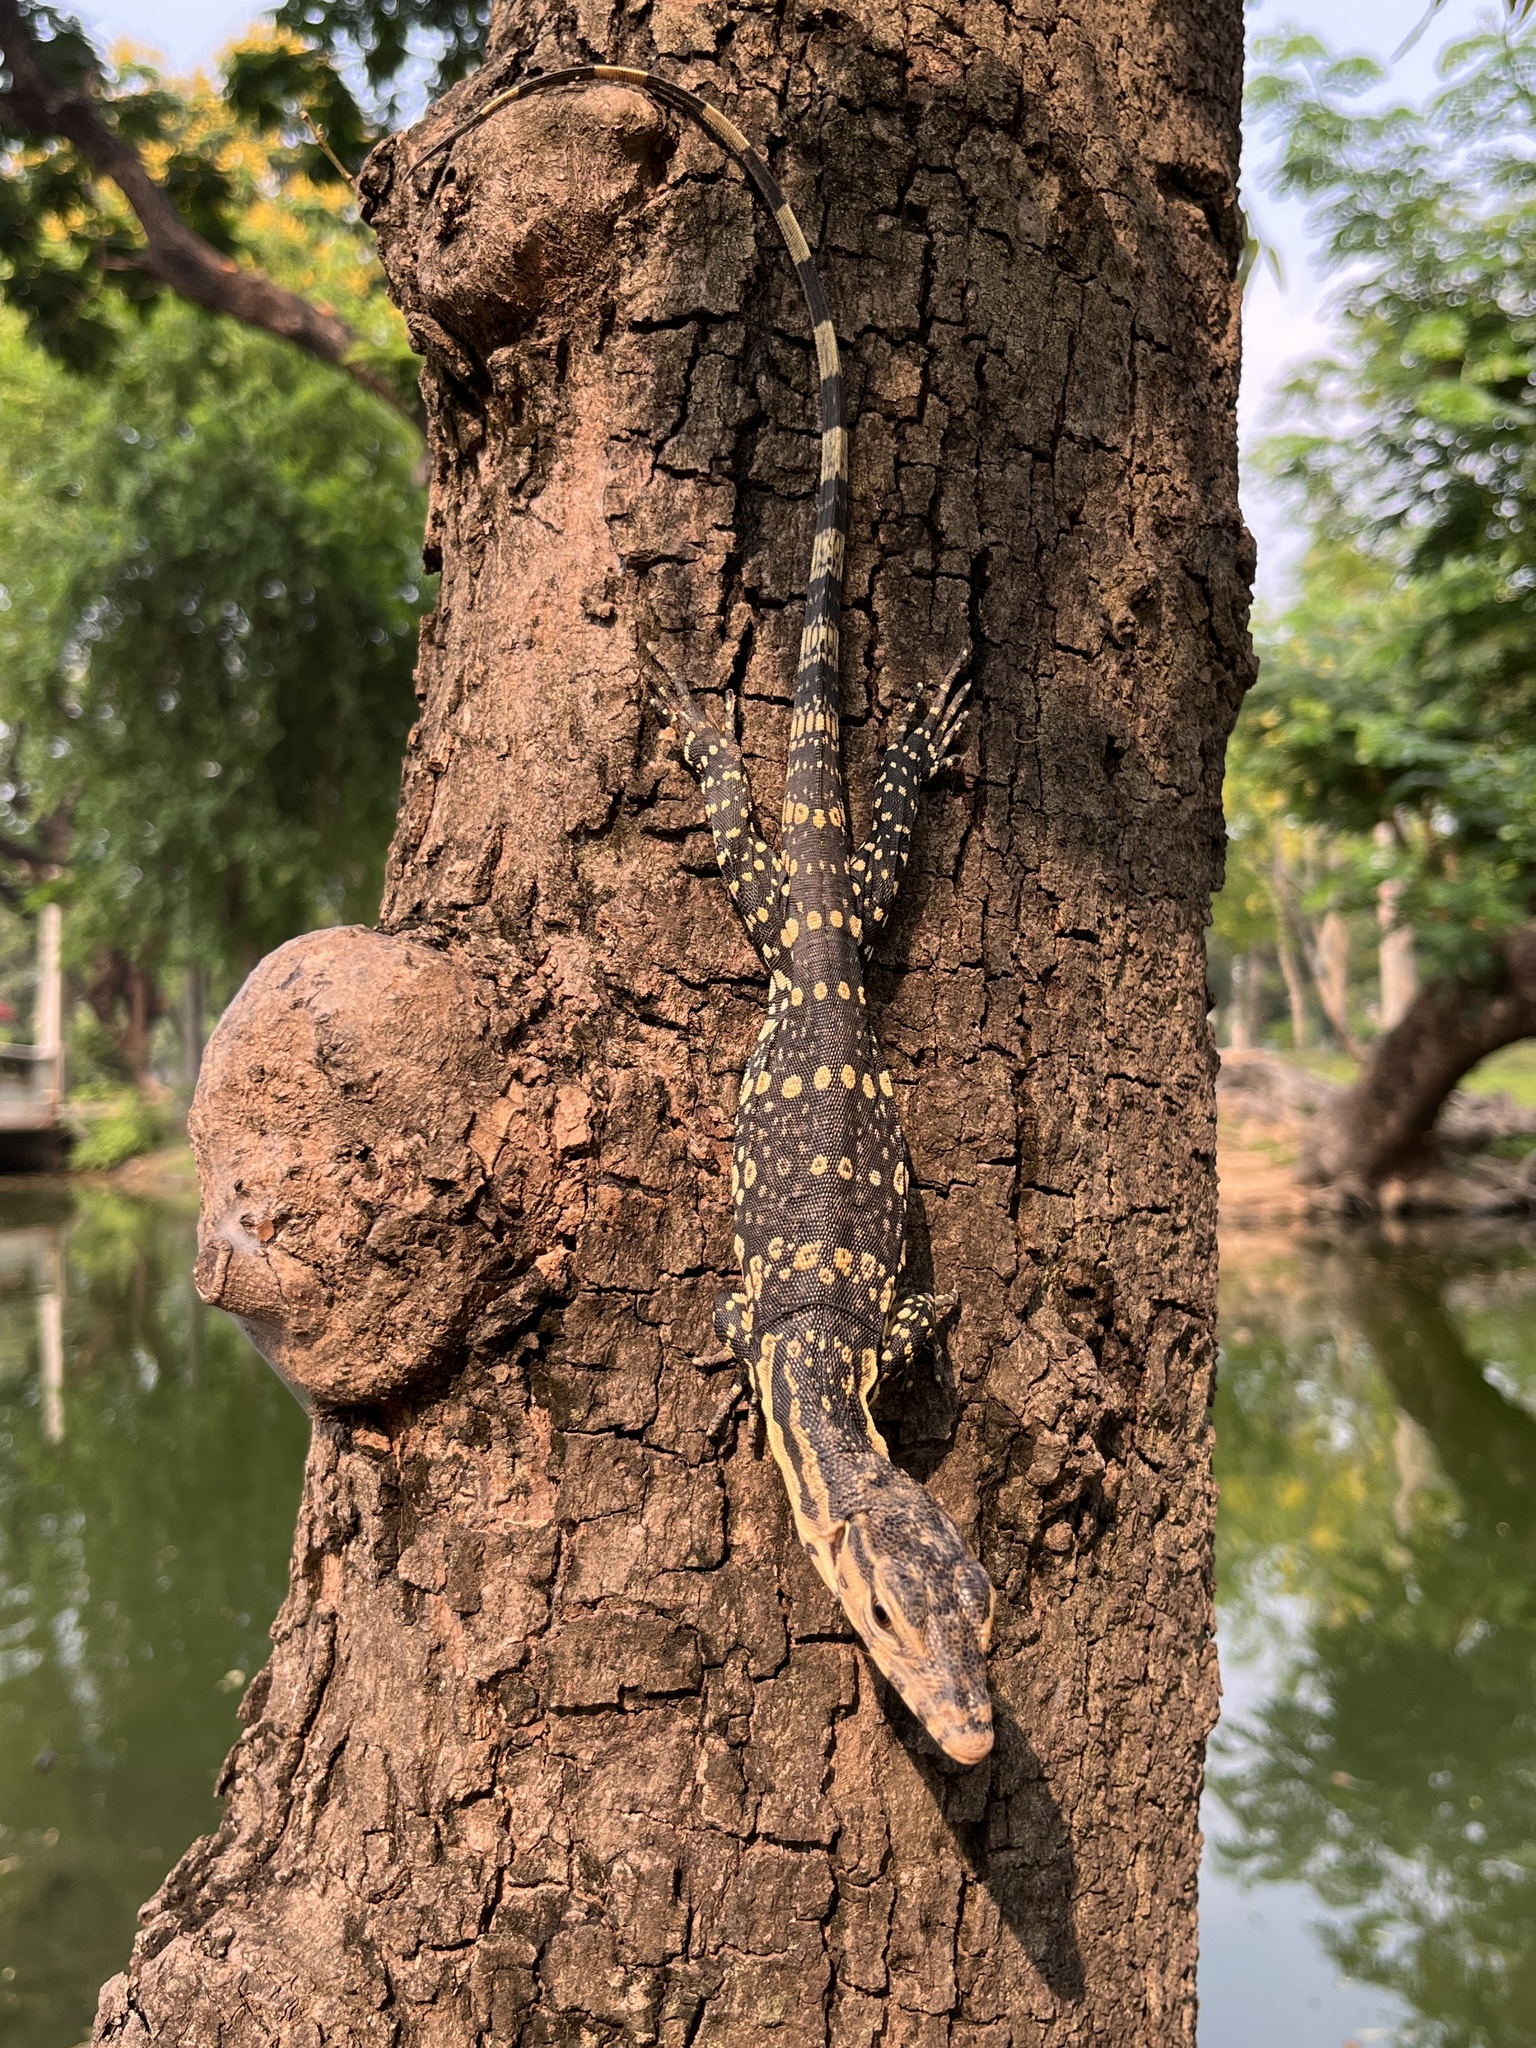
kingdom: Animalia
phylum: Chordata
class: Squamata
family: Varanidae
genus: Varanus
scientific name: Varanus salvator
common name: Common water monitor
